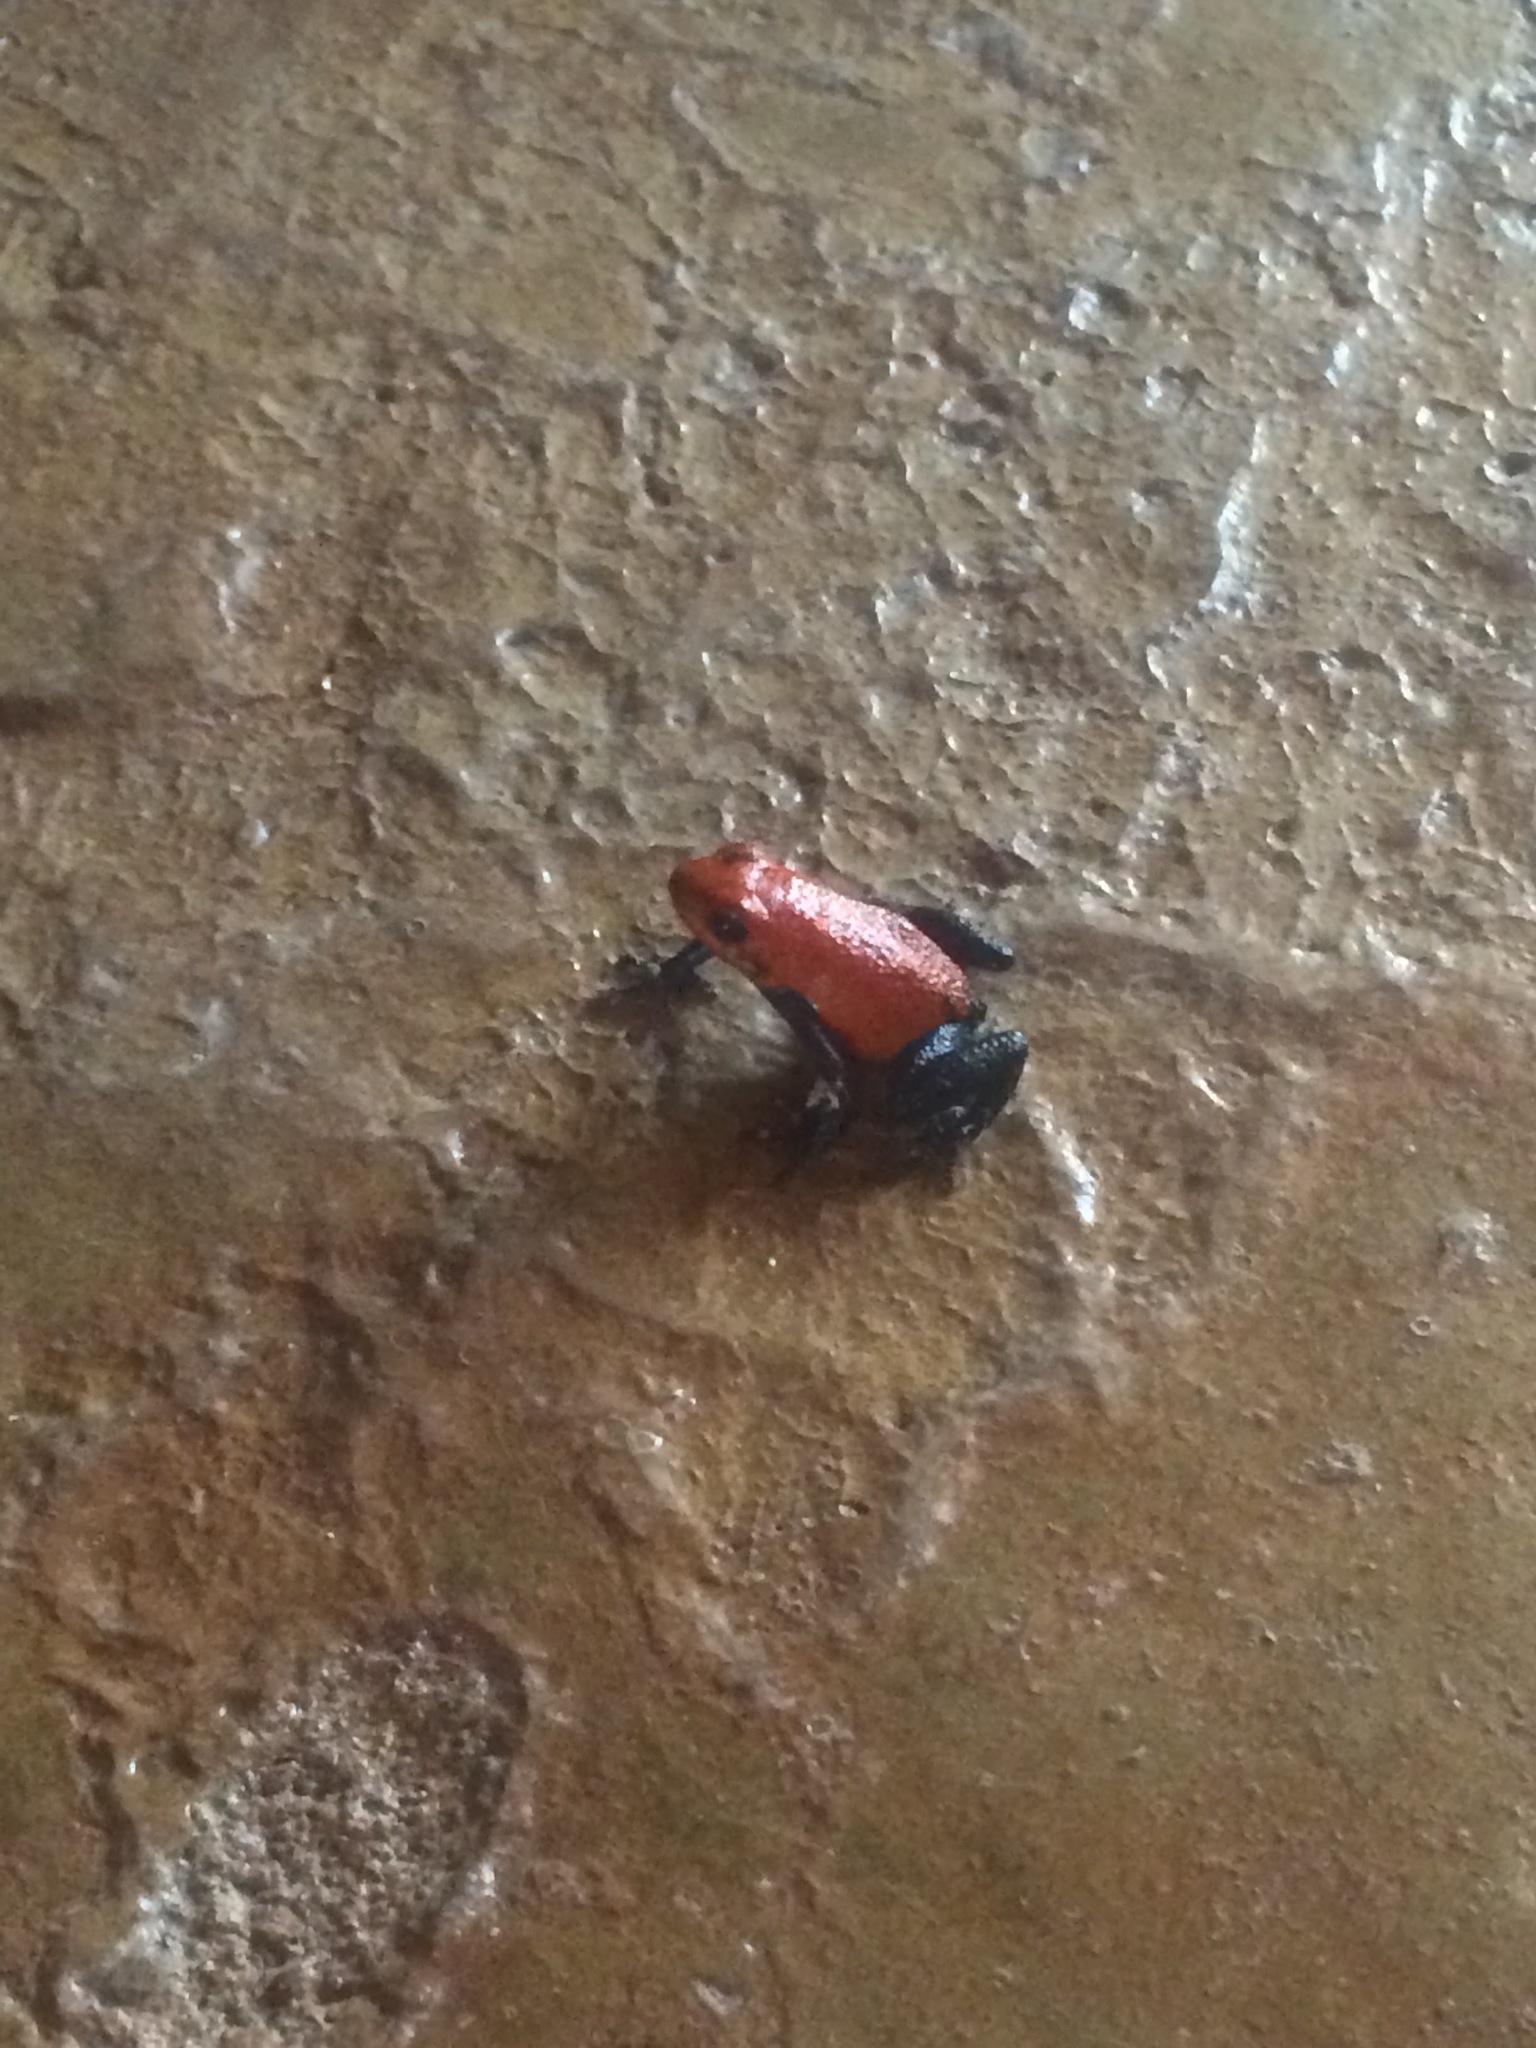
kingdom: Animalia
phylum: Chordata
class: Amphibia
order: Anura
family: Dendrobatidae
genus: Oophaga
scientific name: Oophaga pumilio
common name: Flaming poison frog
